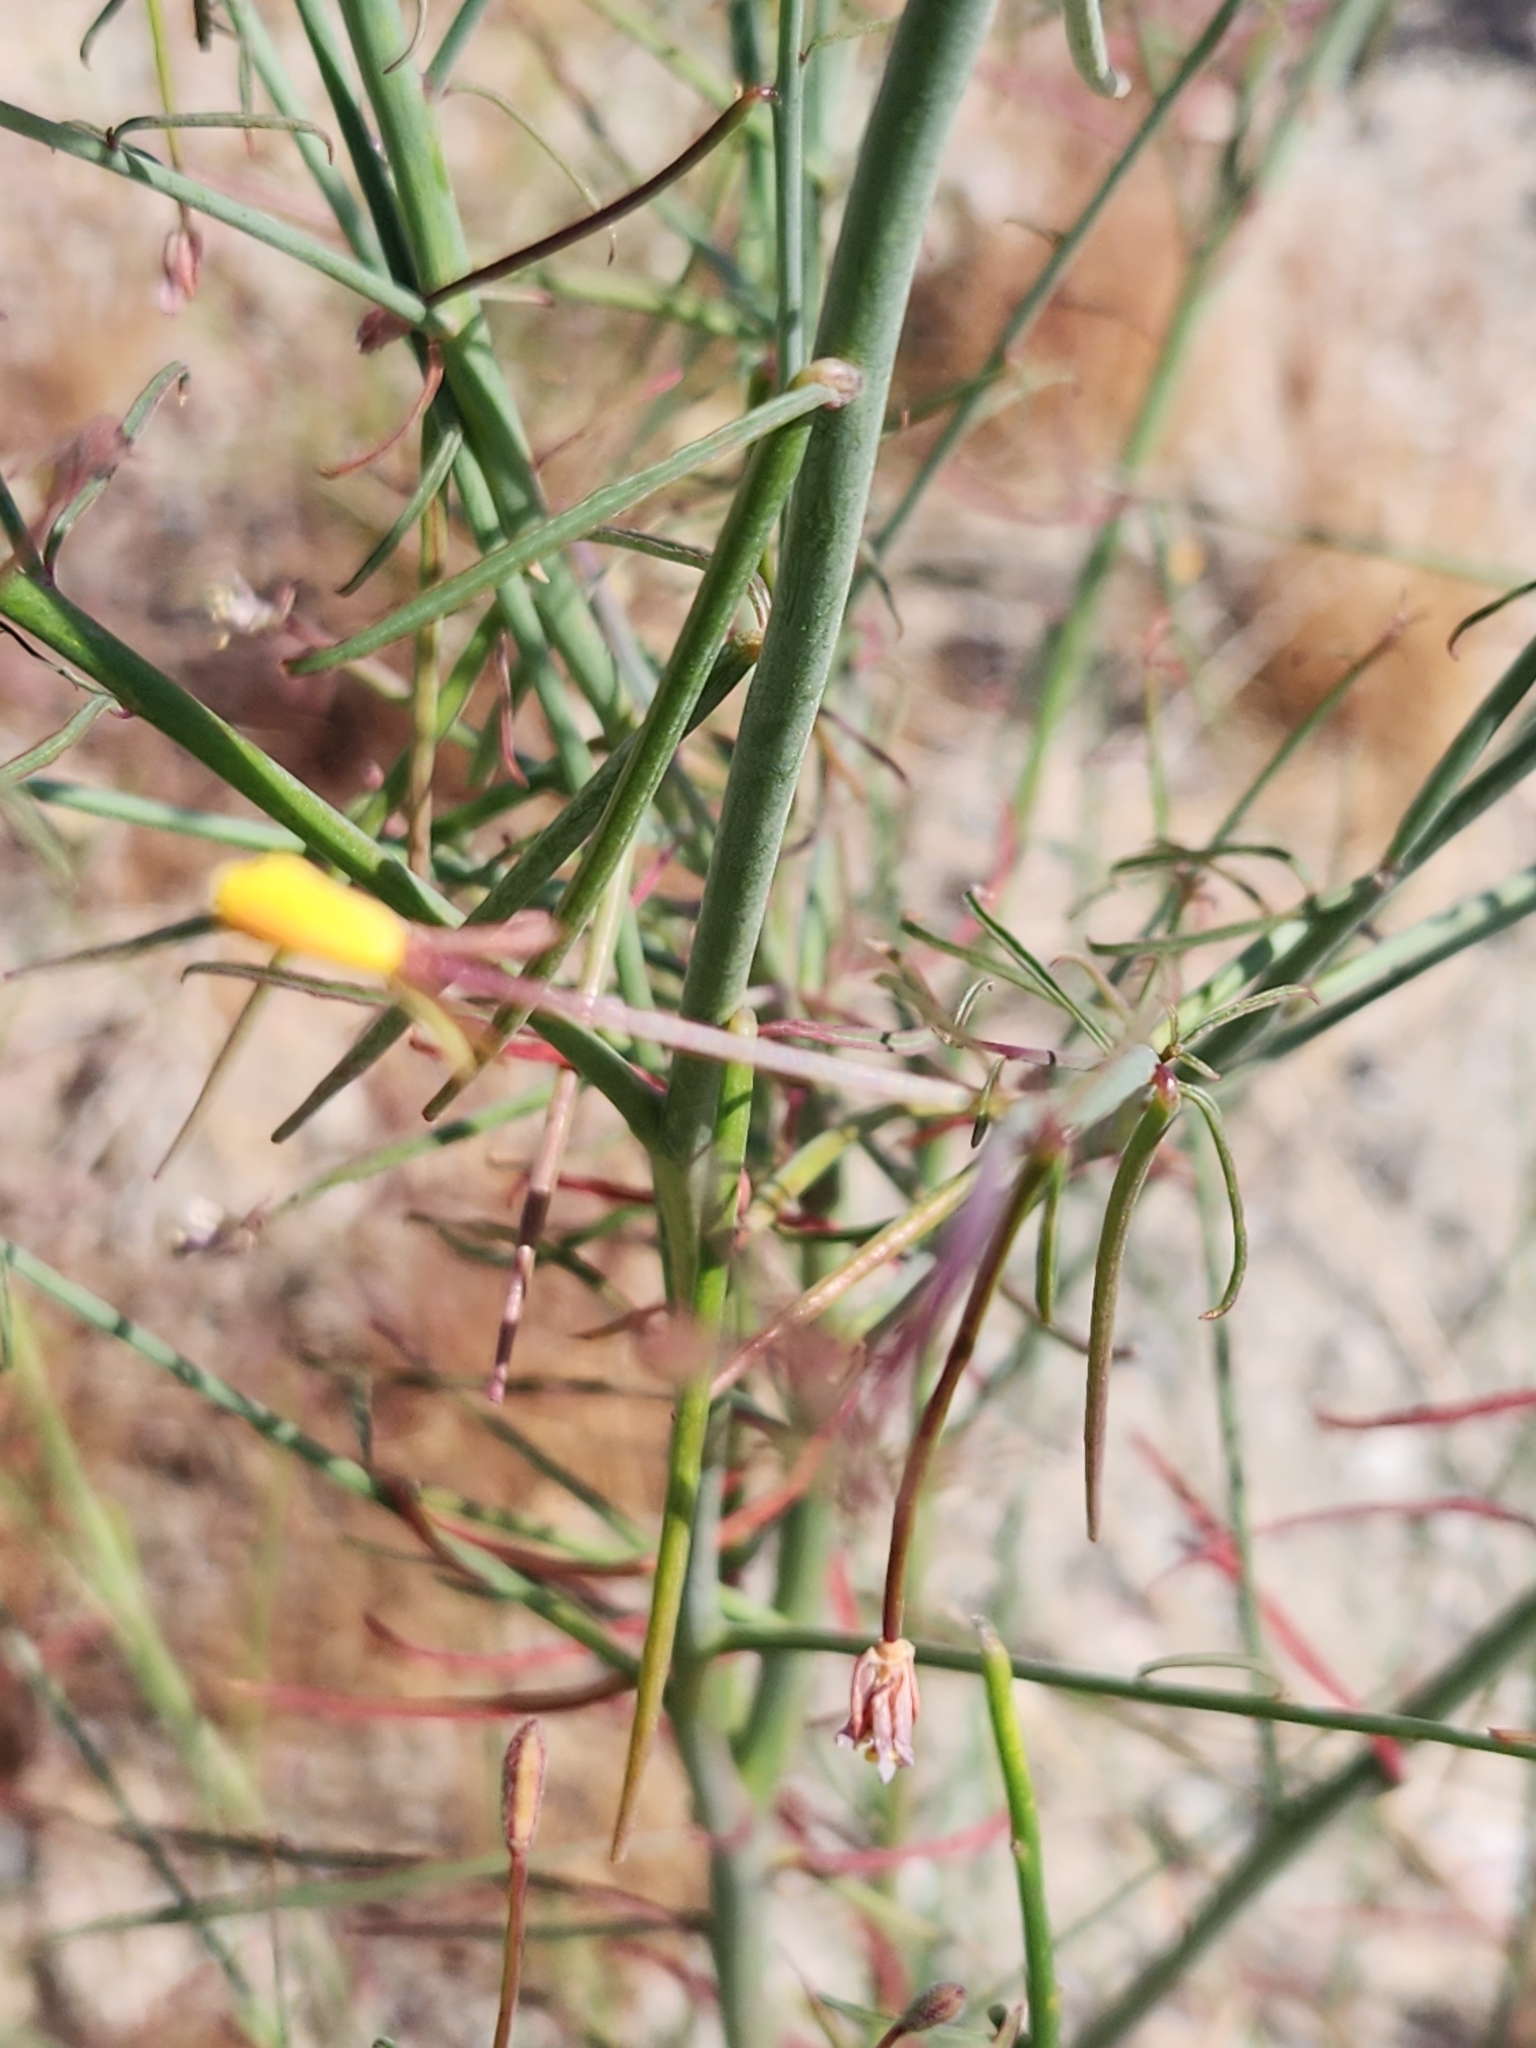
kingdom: Plantae
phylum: Tracheophyta
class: Magnoliopsida
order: Myrtales
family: Onagraceae
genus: Eulobus
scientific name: Eulobus californicus
